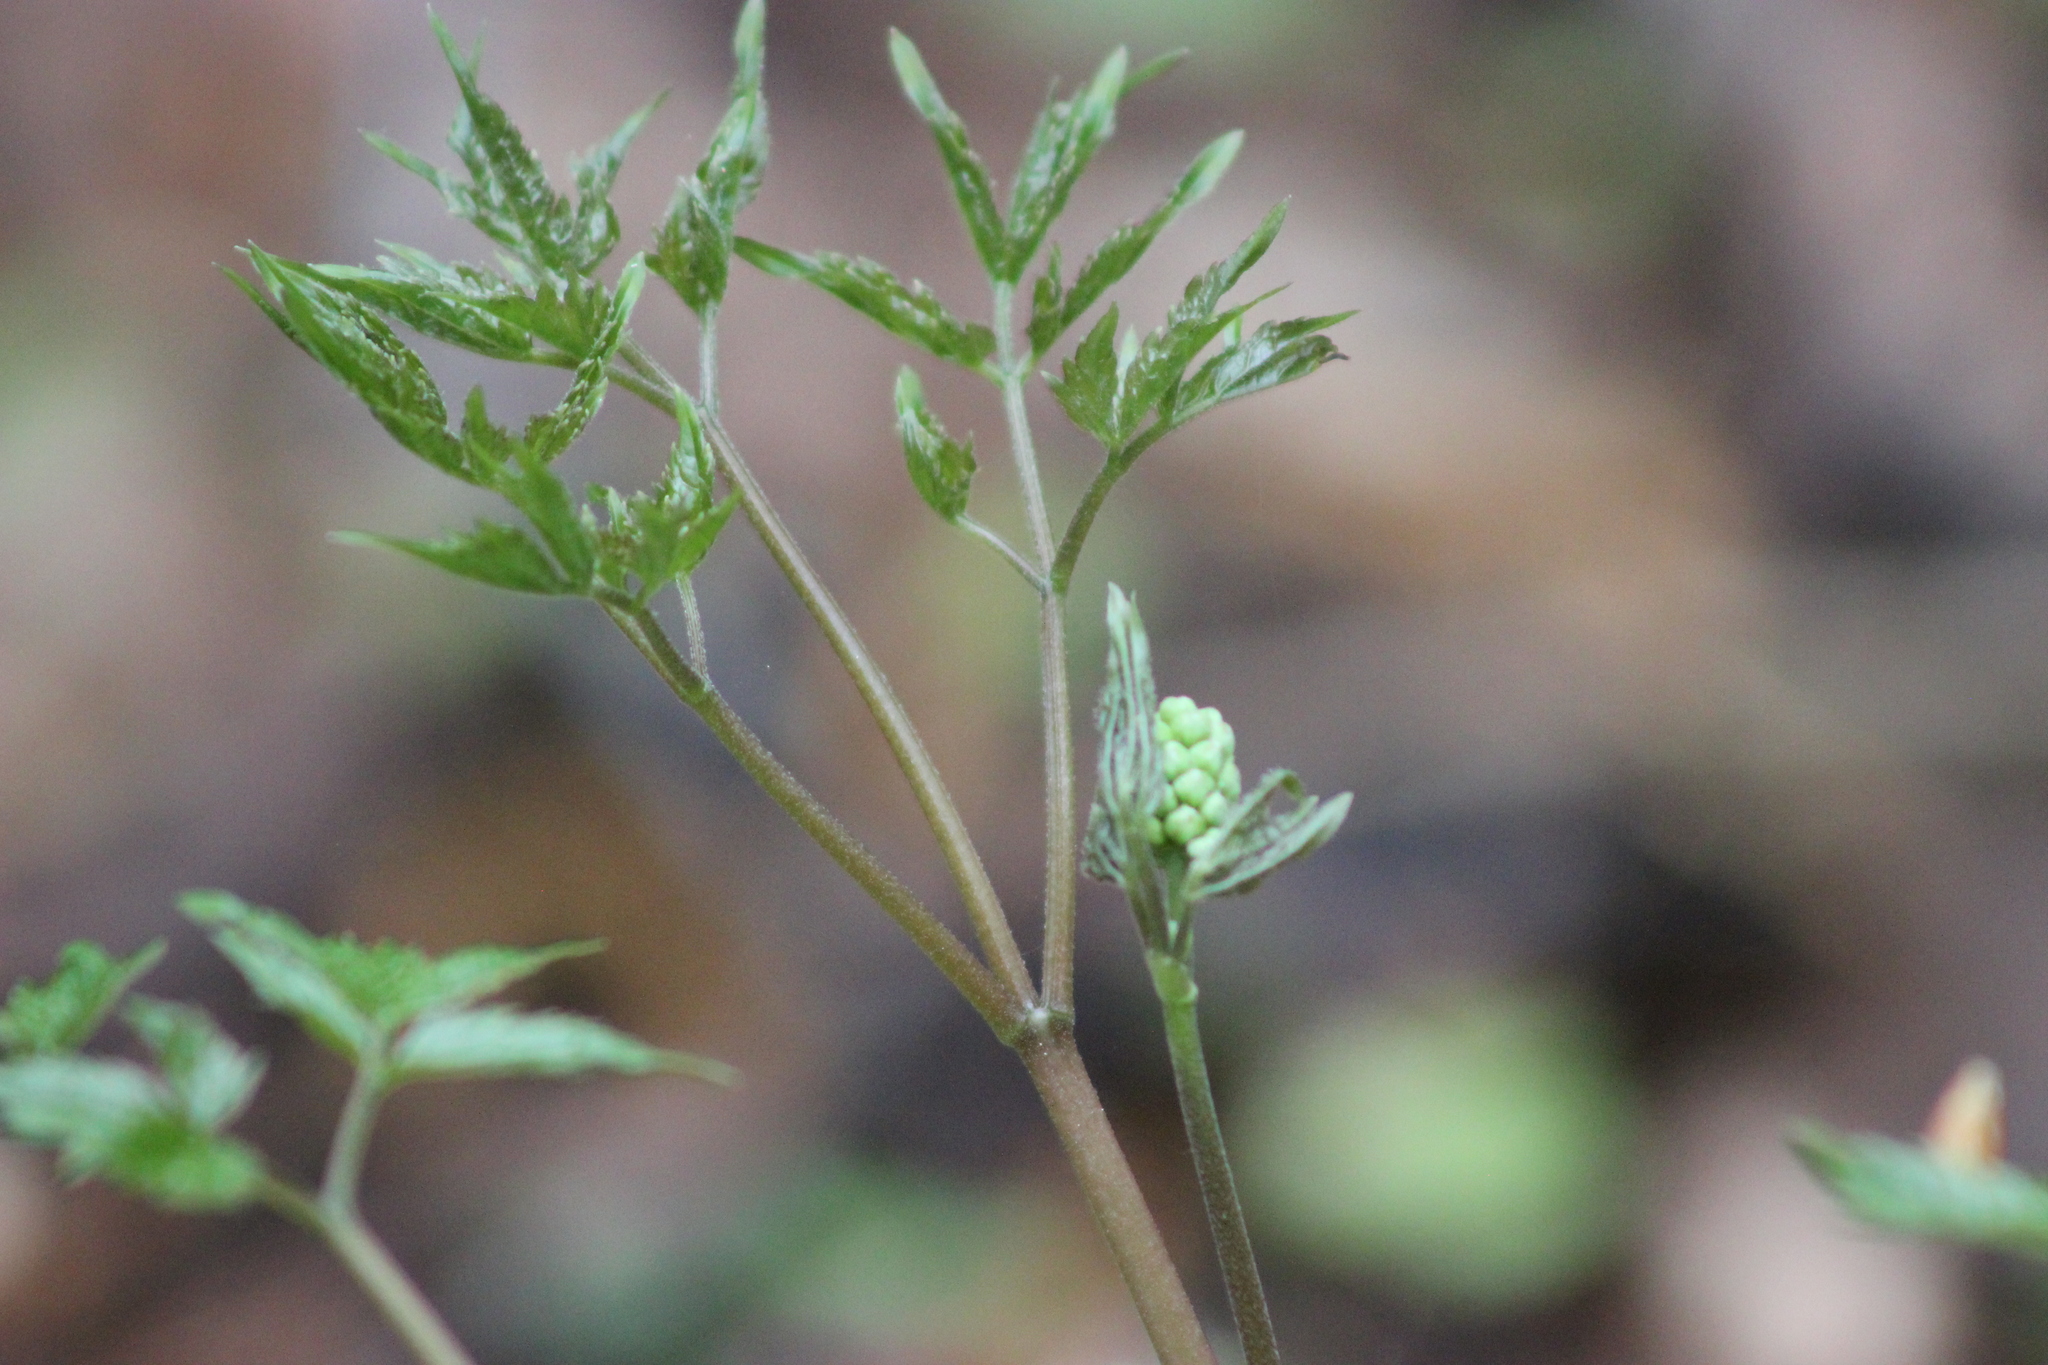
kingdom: Plantae
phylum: Tracheophyta
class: Magnoliopsida
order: Ranunculales
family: Ranunculaceae
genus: Actaea
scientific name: Actaea erythrocarpa
